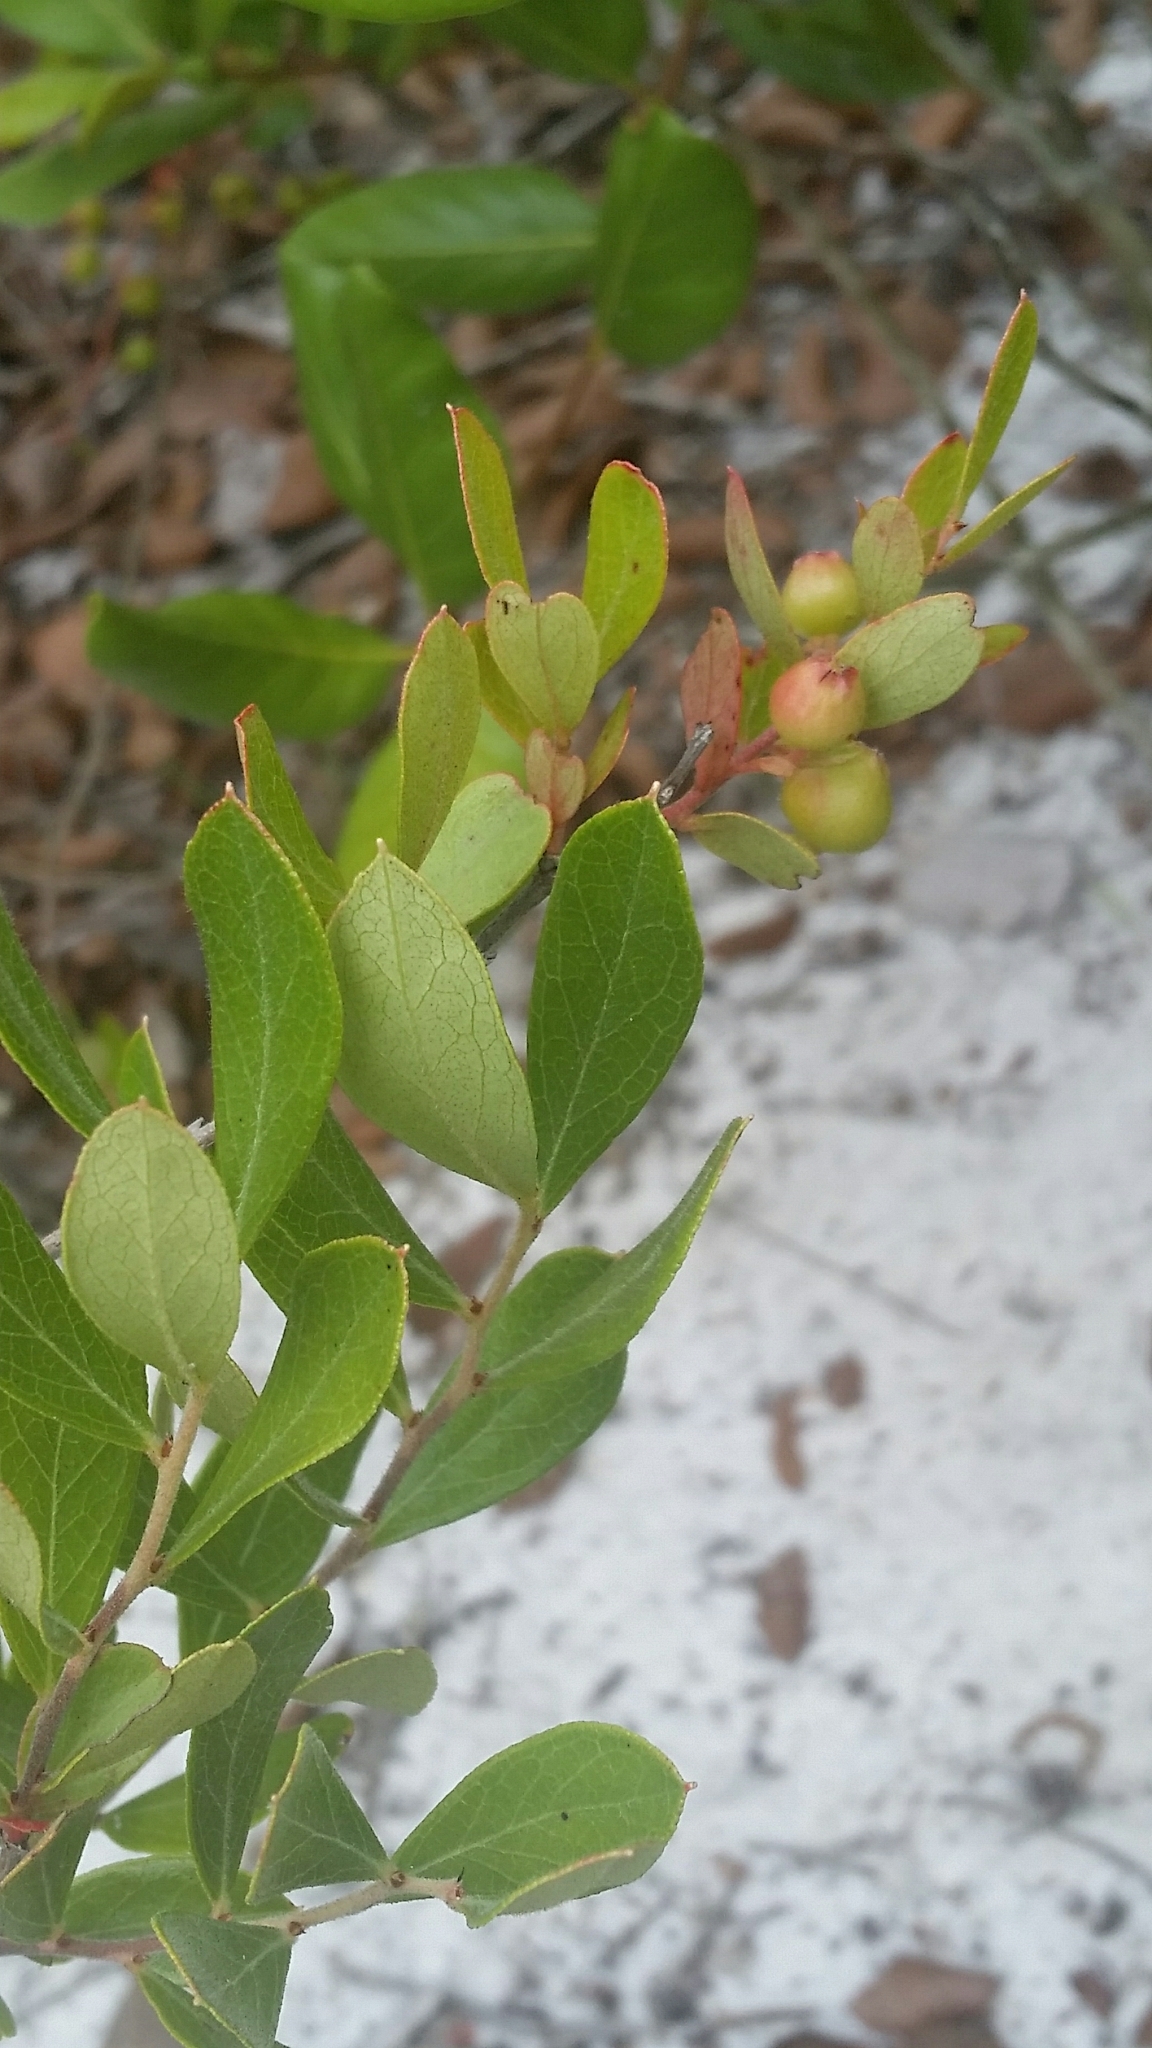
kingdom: Plantae
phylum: Tracheophyta
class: Magnoliopsida
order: Ericales
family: Ericaceae
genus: Gaylussacia
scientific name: Gaylussacia dumosa
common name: Dwarf huckleberry
